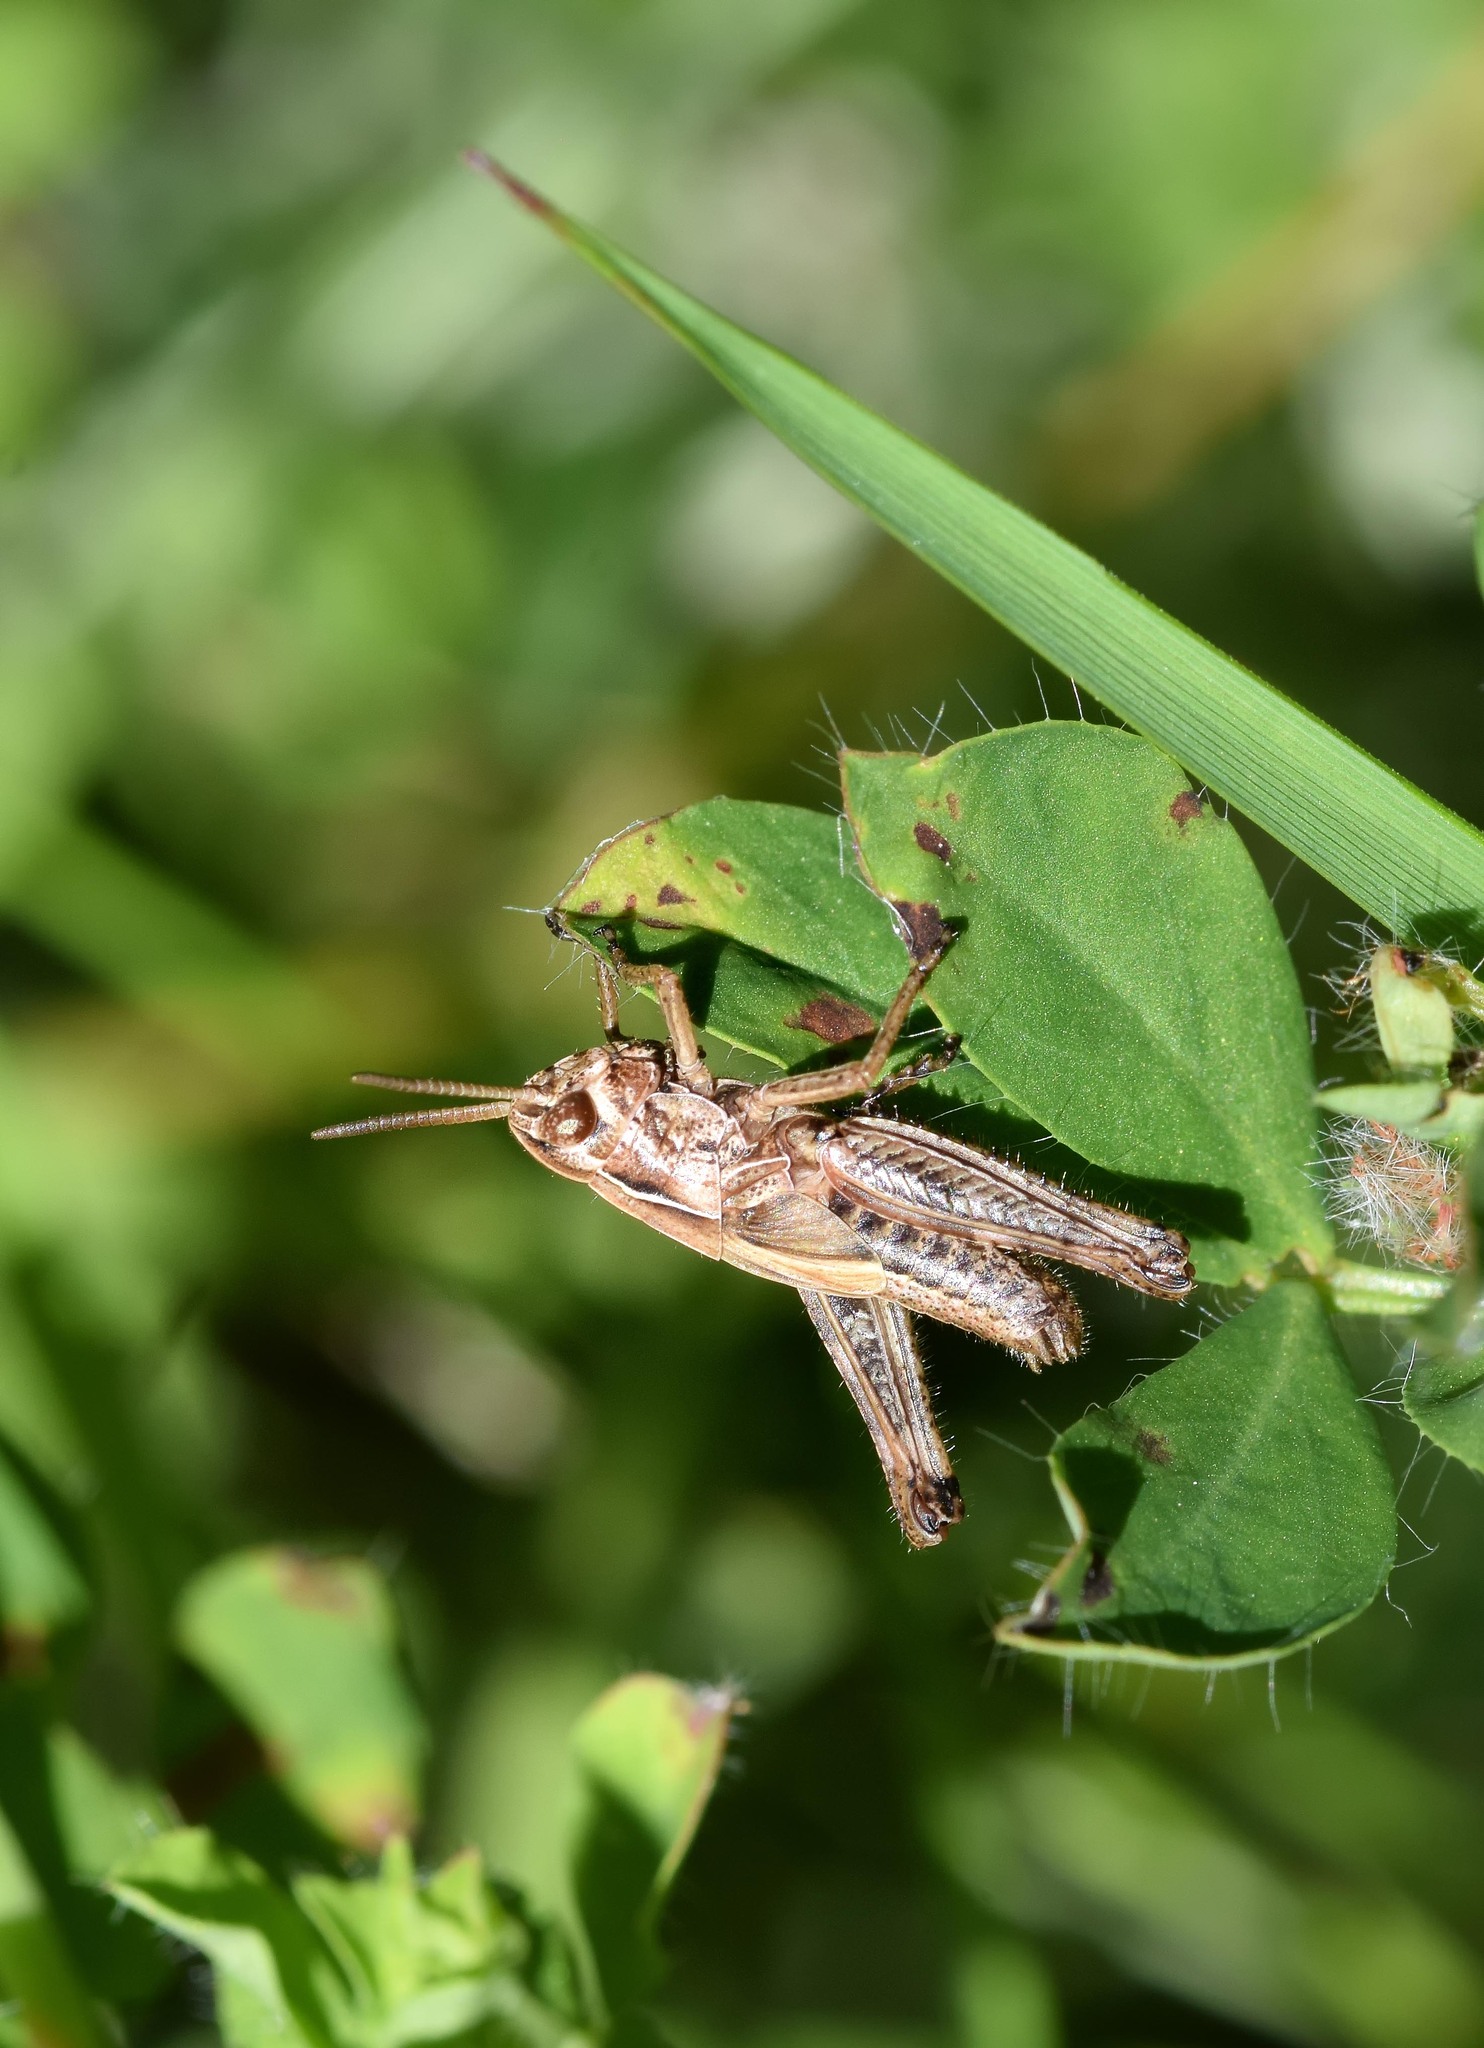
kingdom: Animalia
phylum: Arthropoda
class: Insecta
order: Orthoptera
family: Acrididae
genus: Omocestus
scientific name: Omocestus viridulus
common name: Common green grasshopper
